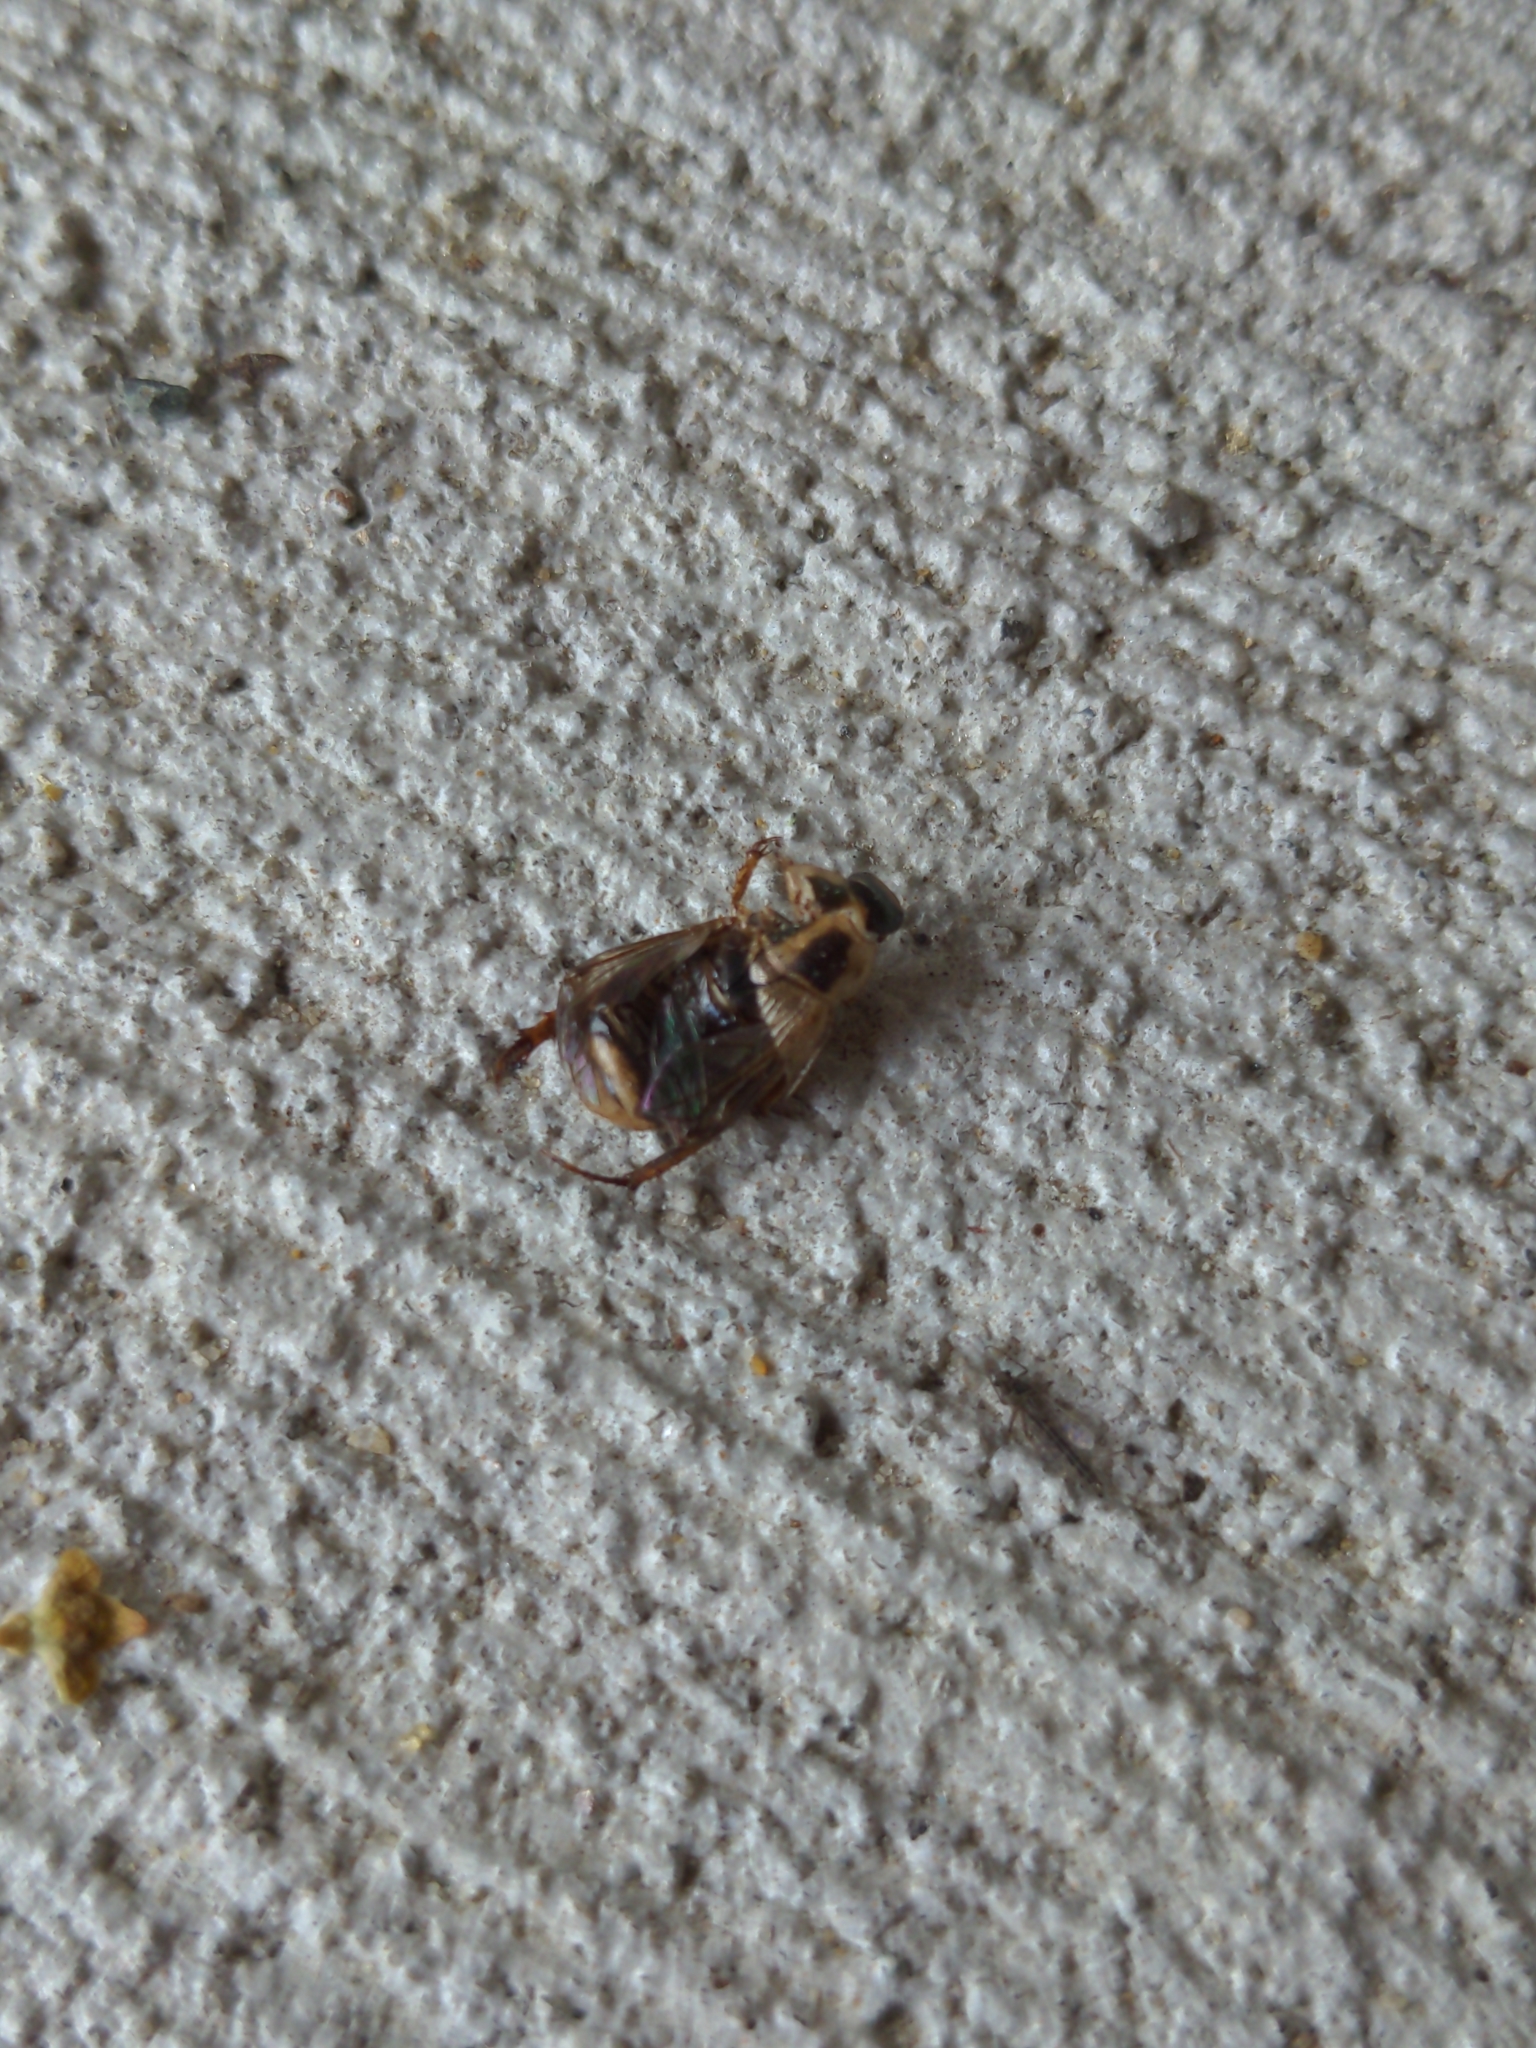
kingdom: Animalia
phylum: Arthropoda
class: Insecta
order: Coleoptera
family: Scarabaeidae
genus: Exomala
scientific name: Exomala orientalis
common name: Oriental beetle
